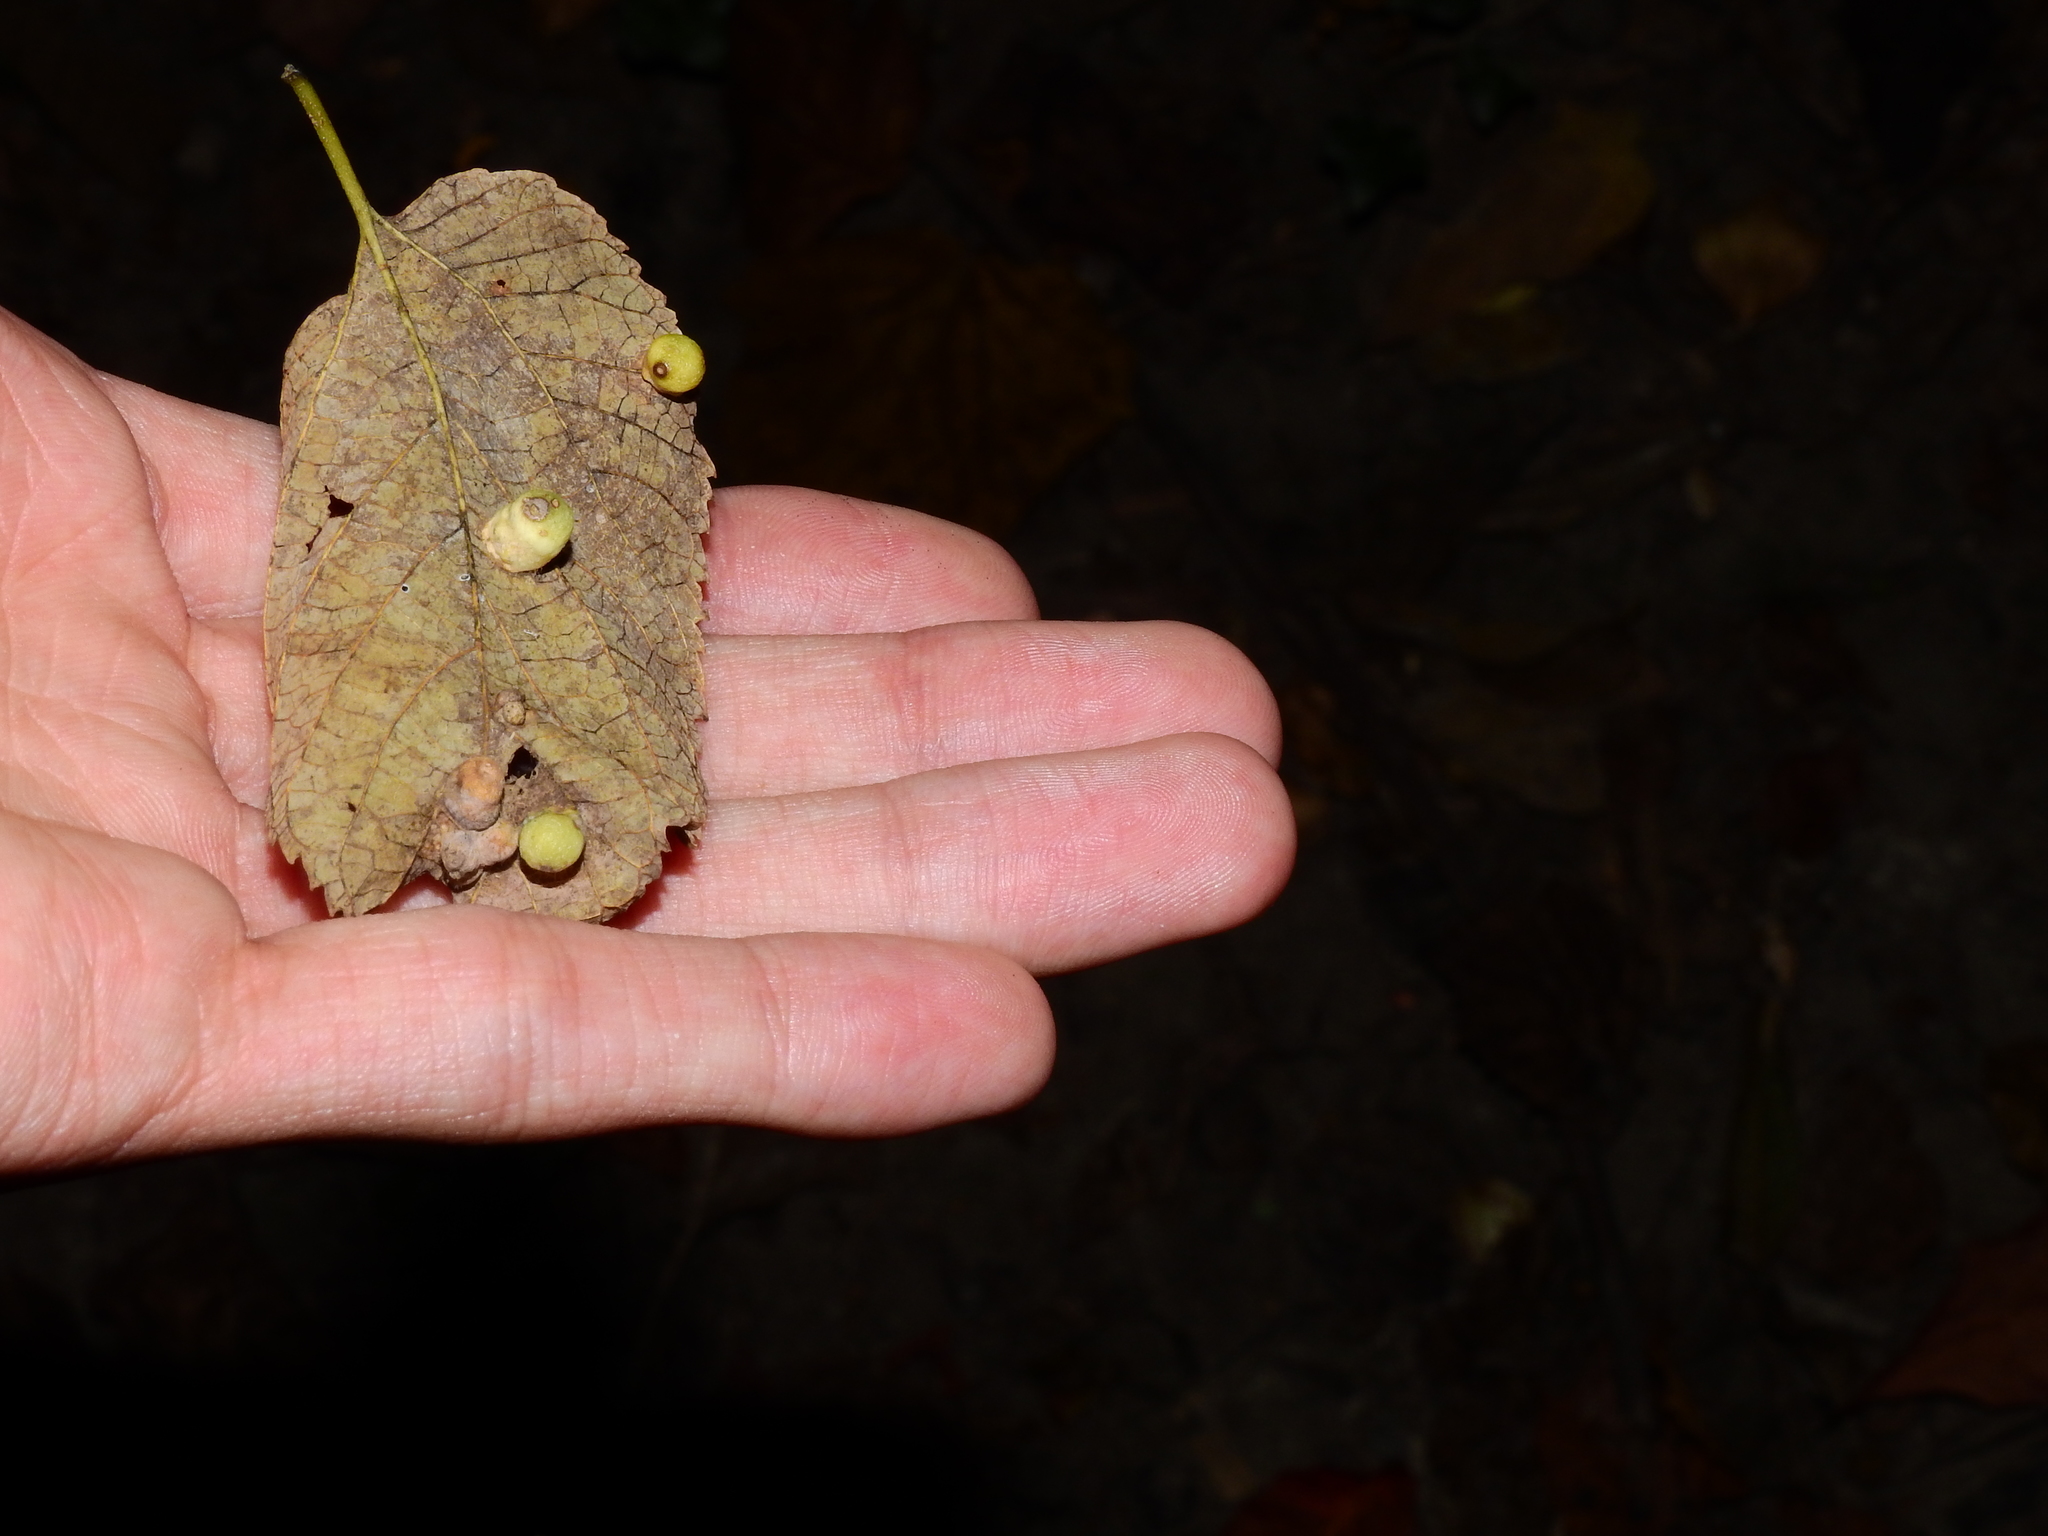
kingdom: Animalia
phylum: Arthropoda
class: Insecta
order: Hemiptera
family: Aphalaridae
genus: Pachypsylla
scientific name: Pachypsylla celtidismamma
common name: Hackberry nipplegall psyllid
